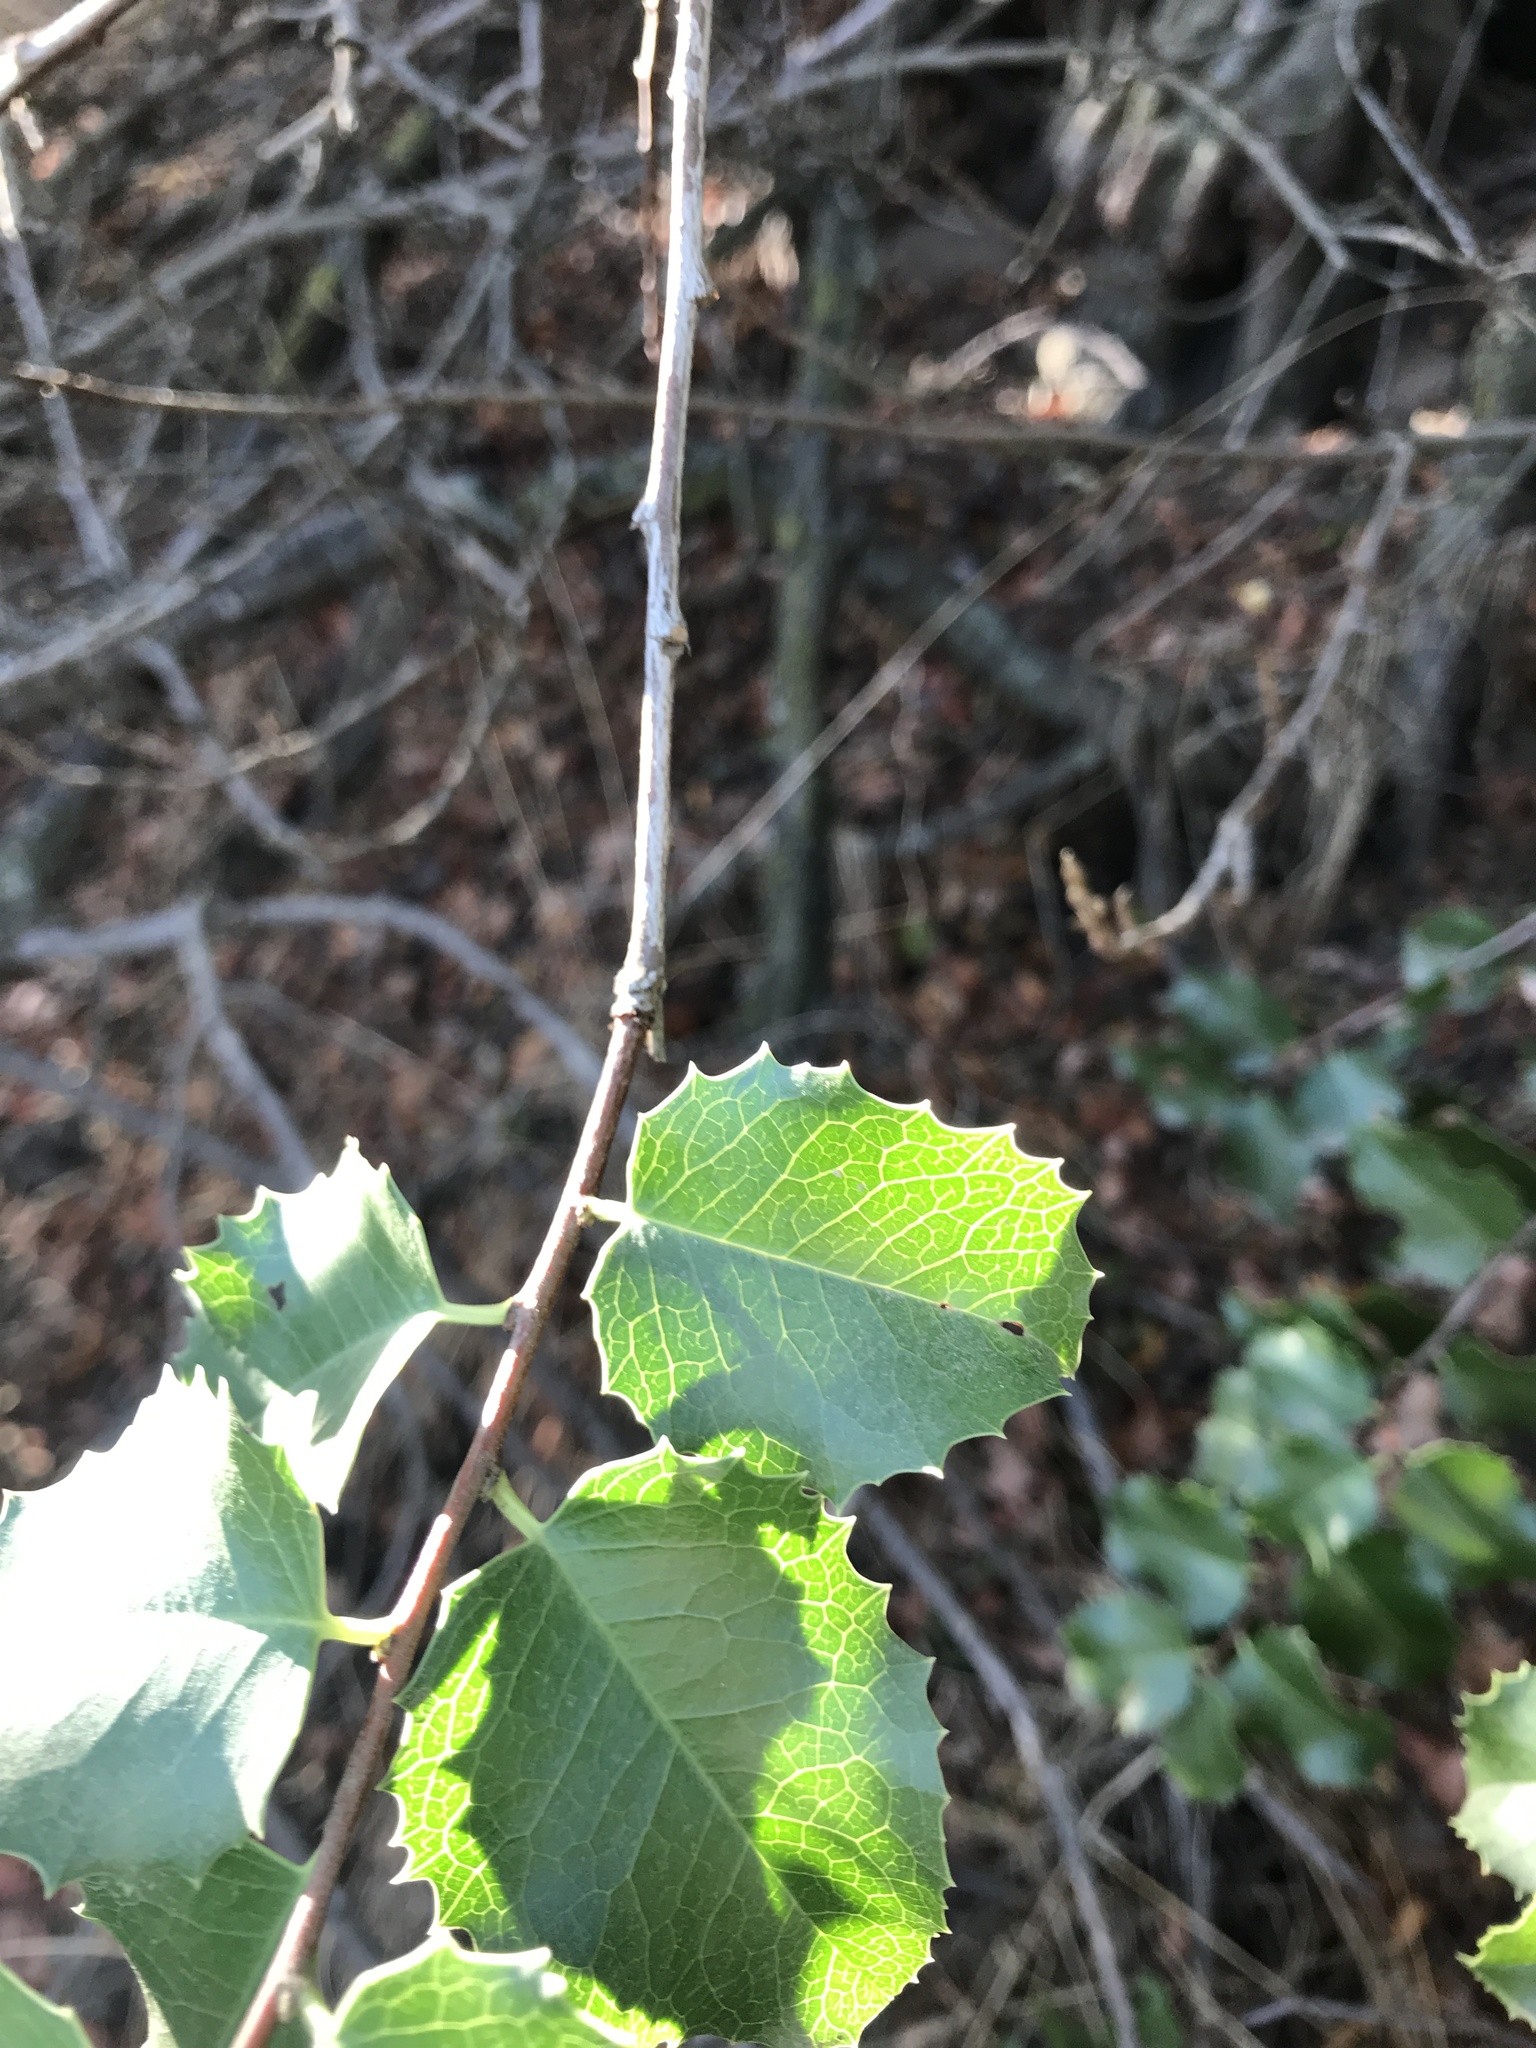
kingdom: Plantae
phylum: Tracheophyta
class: Magnoliopsida
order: Rosales
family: Rosaceae
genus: Prunus
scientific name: Prunus ilicifolia
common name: Hollyleaf cherry
